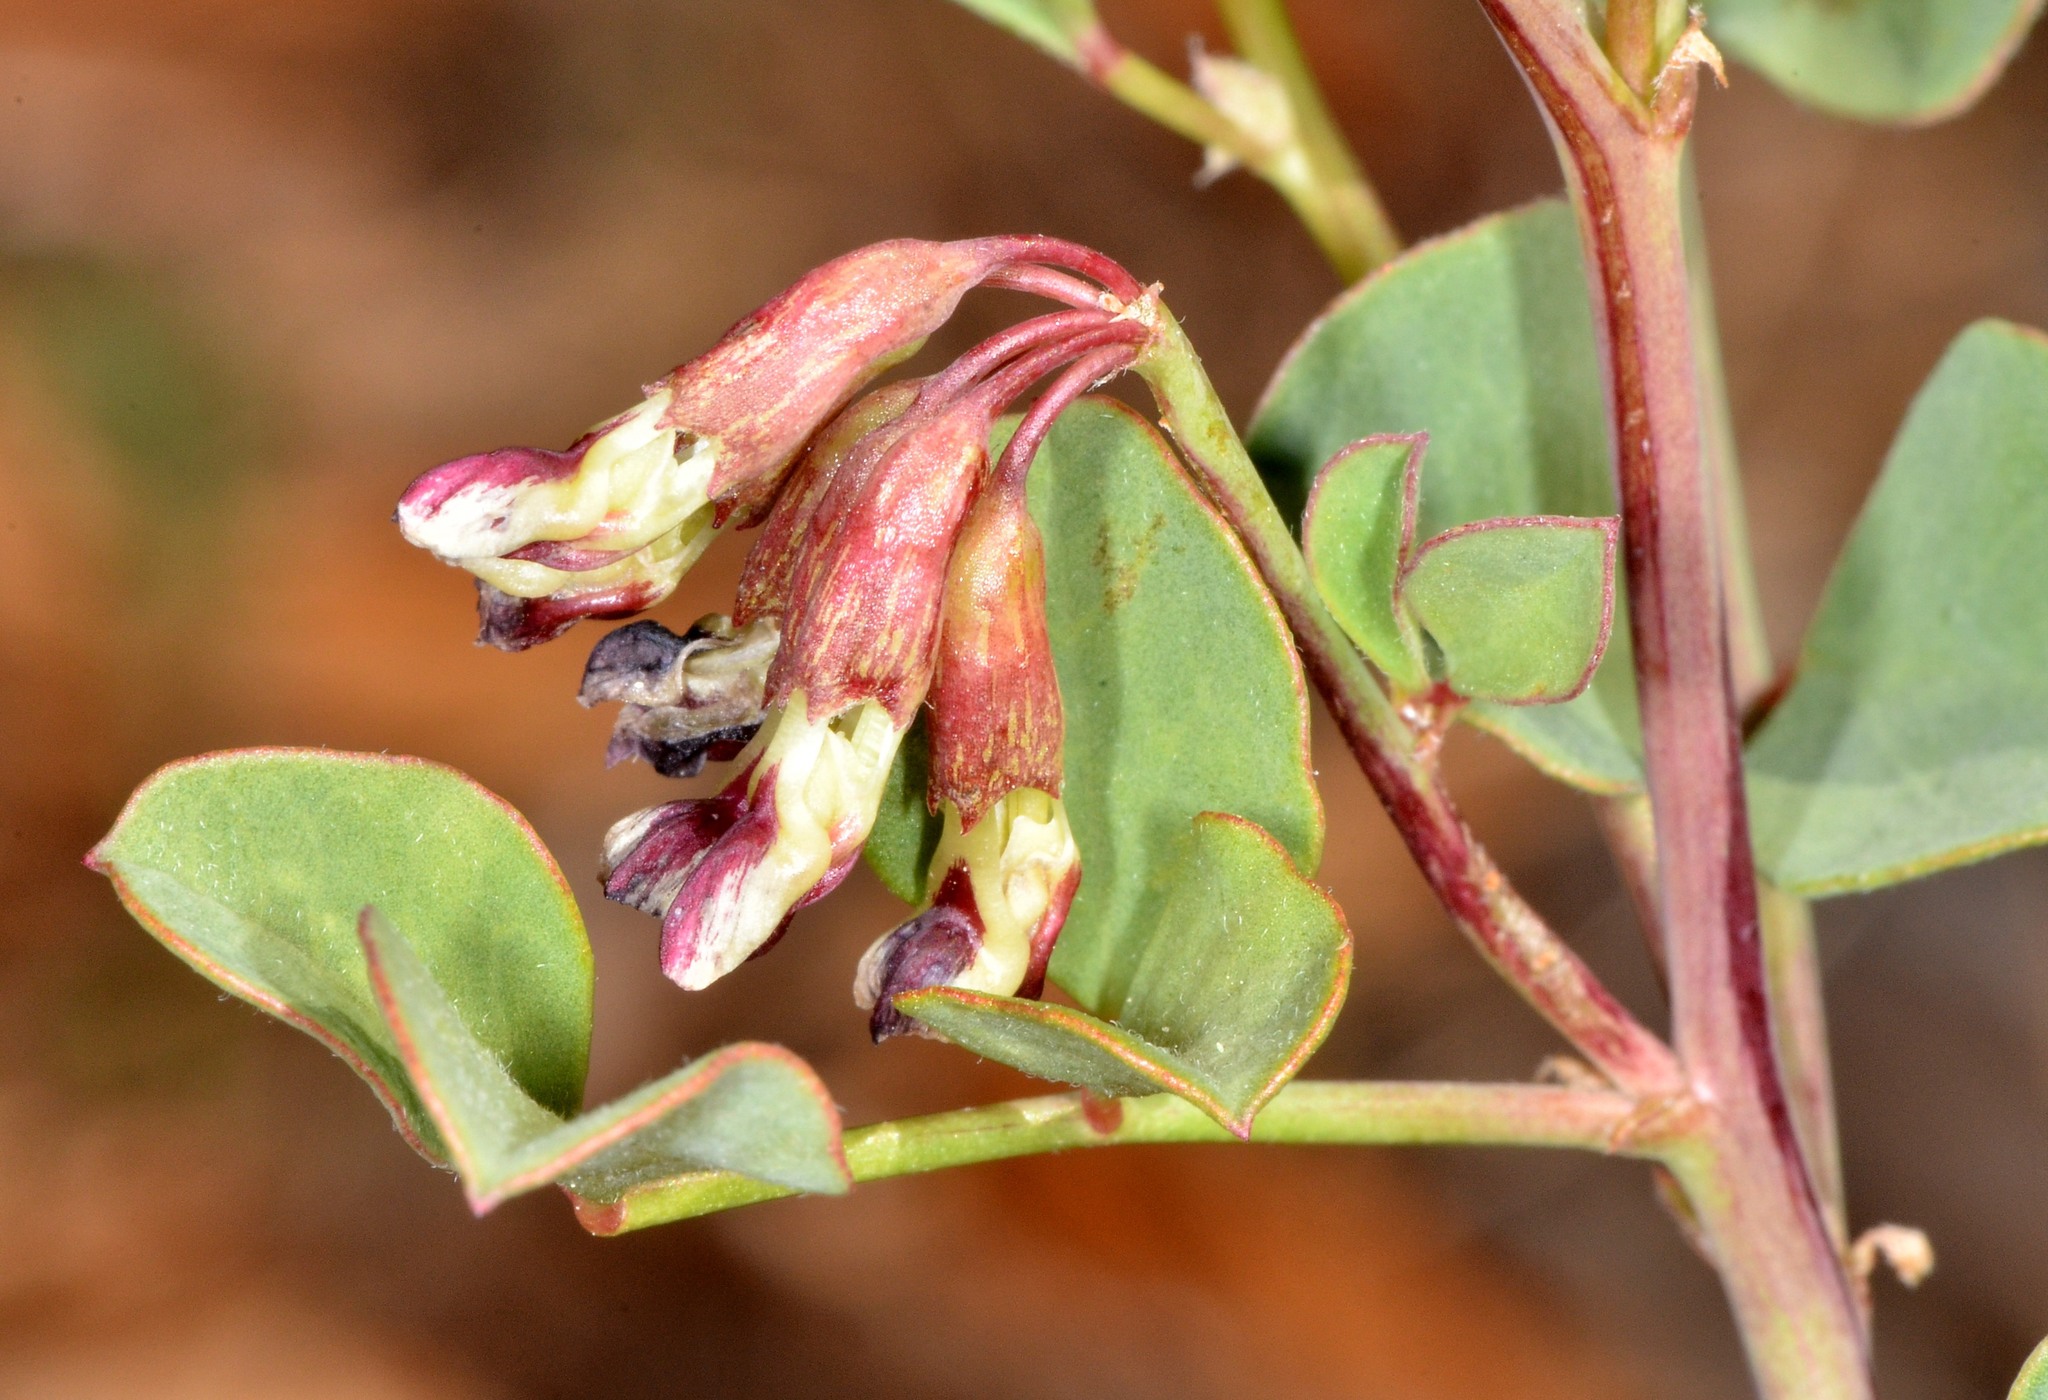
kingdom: Plantae
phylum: Tracheophyta
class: Magnoliopsida
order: Fabales
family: Fabaceae
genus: Hosackia
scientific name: Hosackia crassifolia
